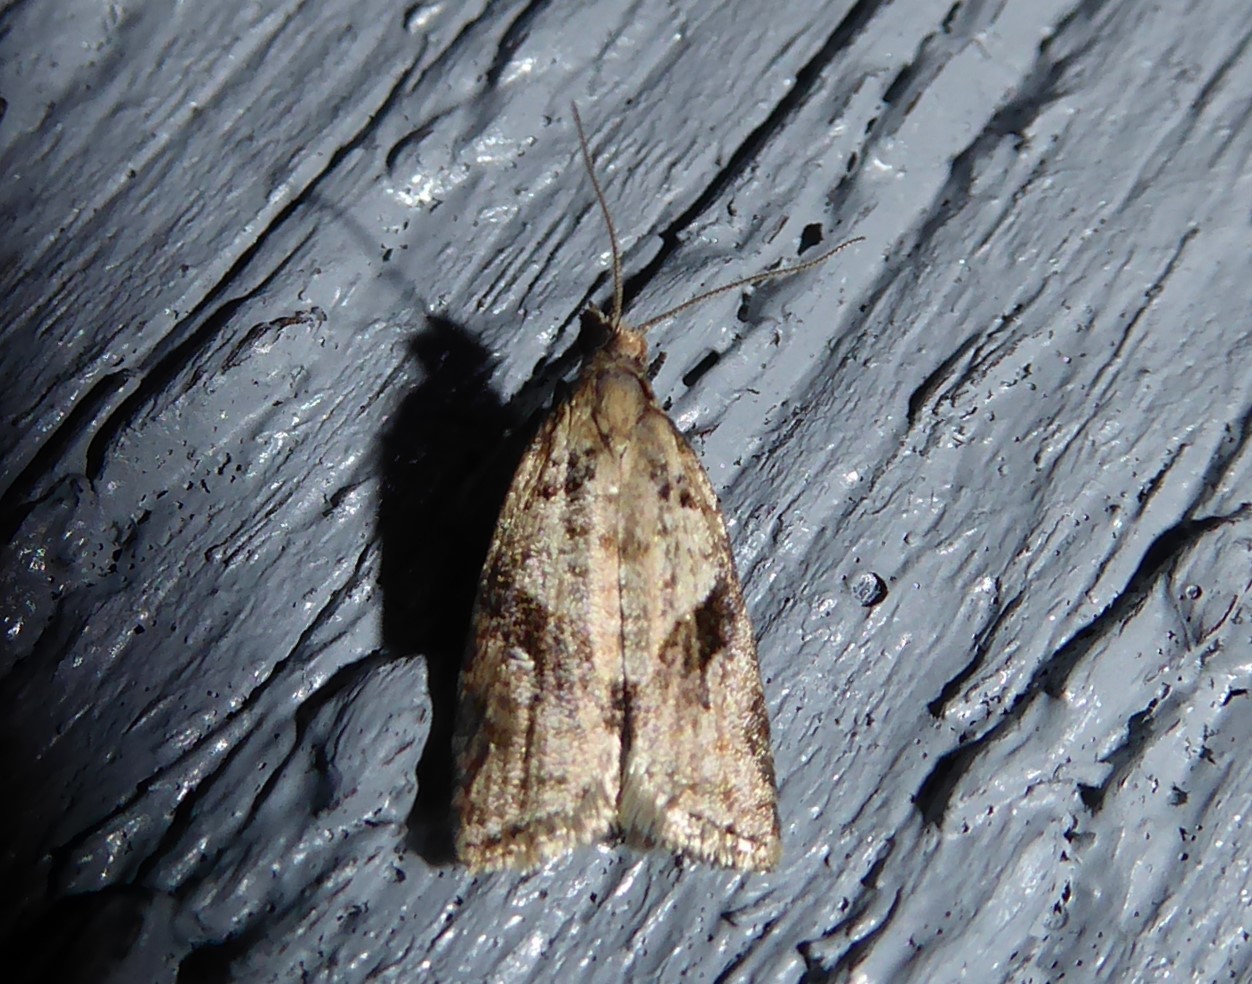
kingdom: Animalia
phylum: Arthropoda
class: Insecta
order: Lepidoptera
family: Tortricidae
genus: Capua
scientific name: Capua semiferana
